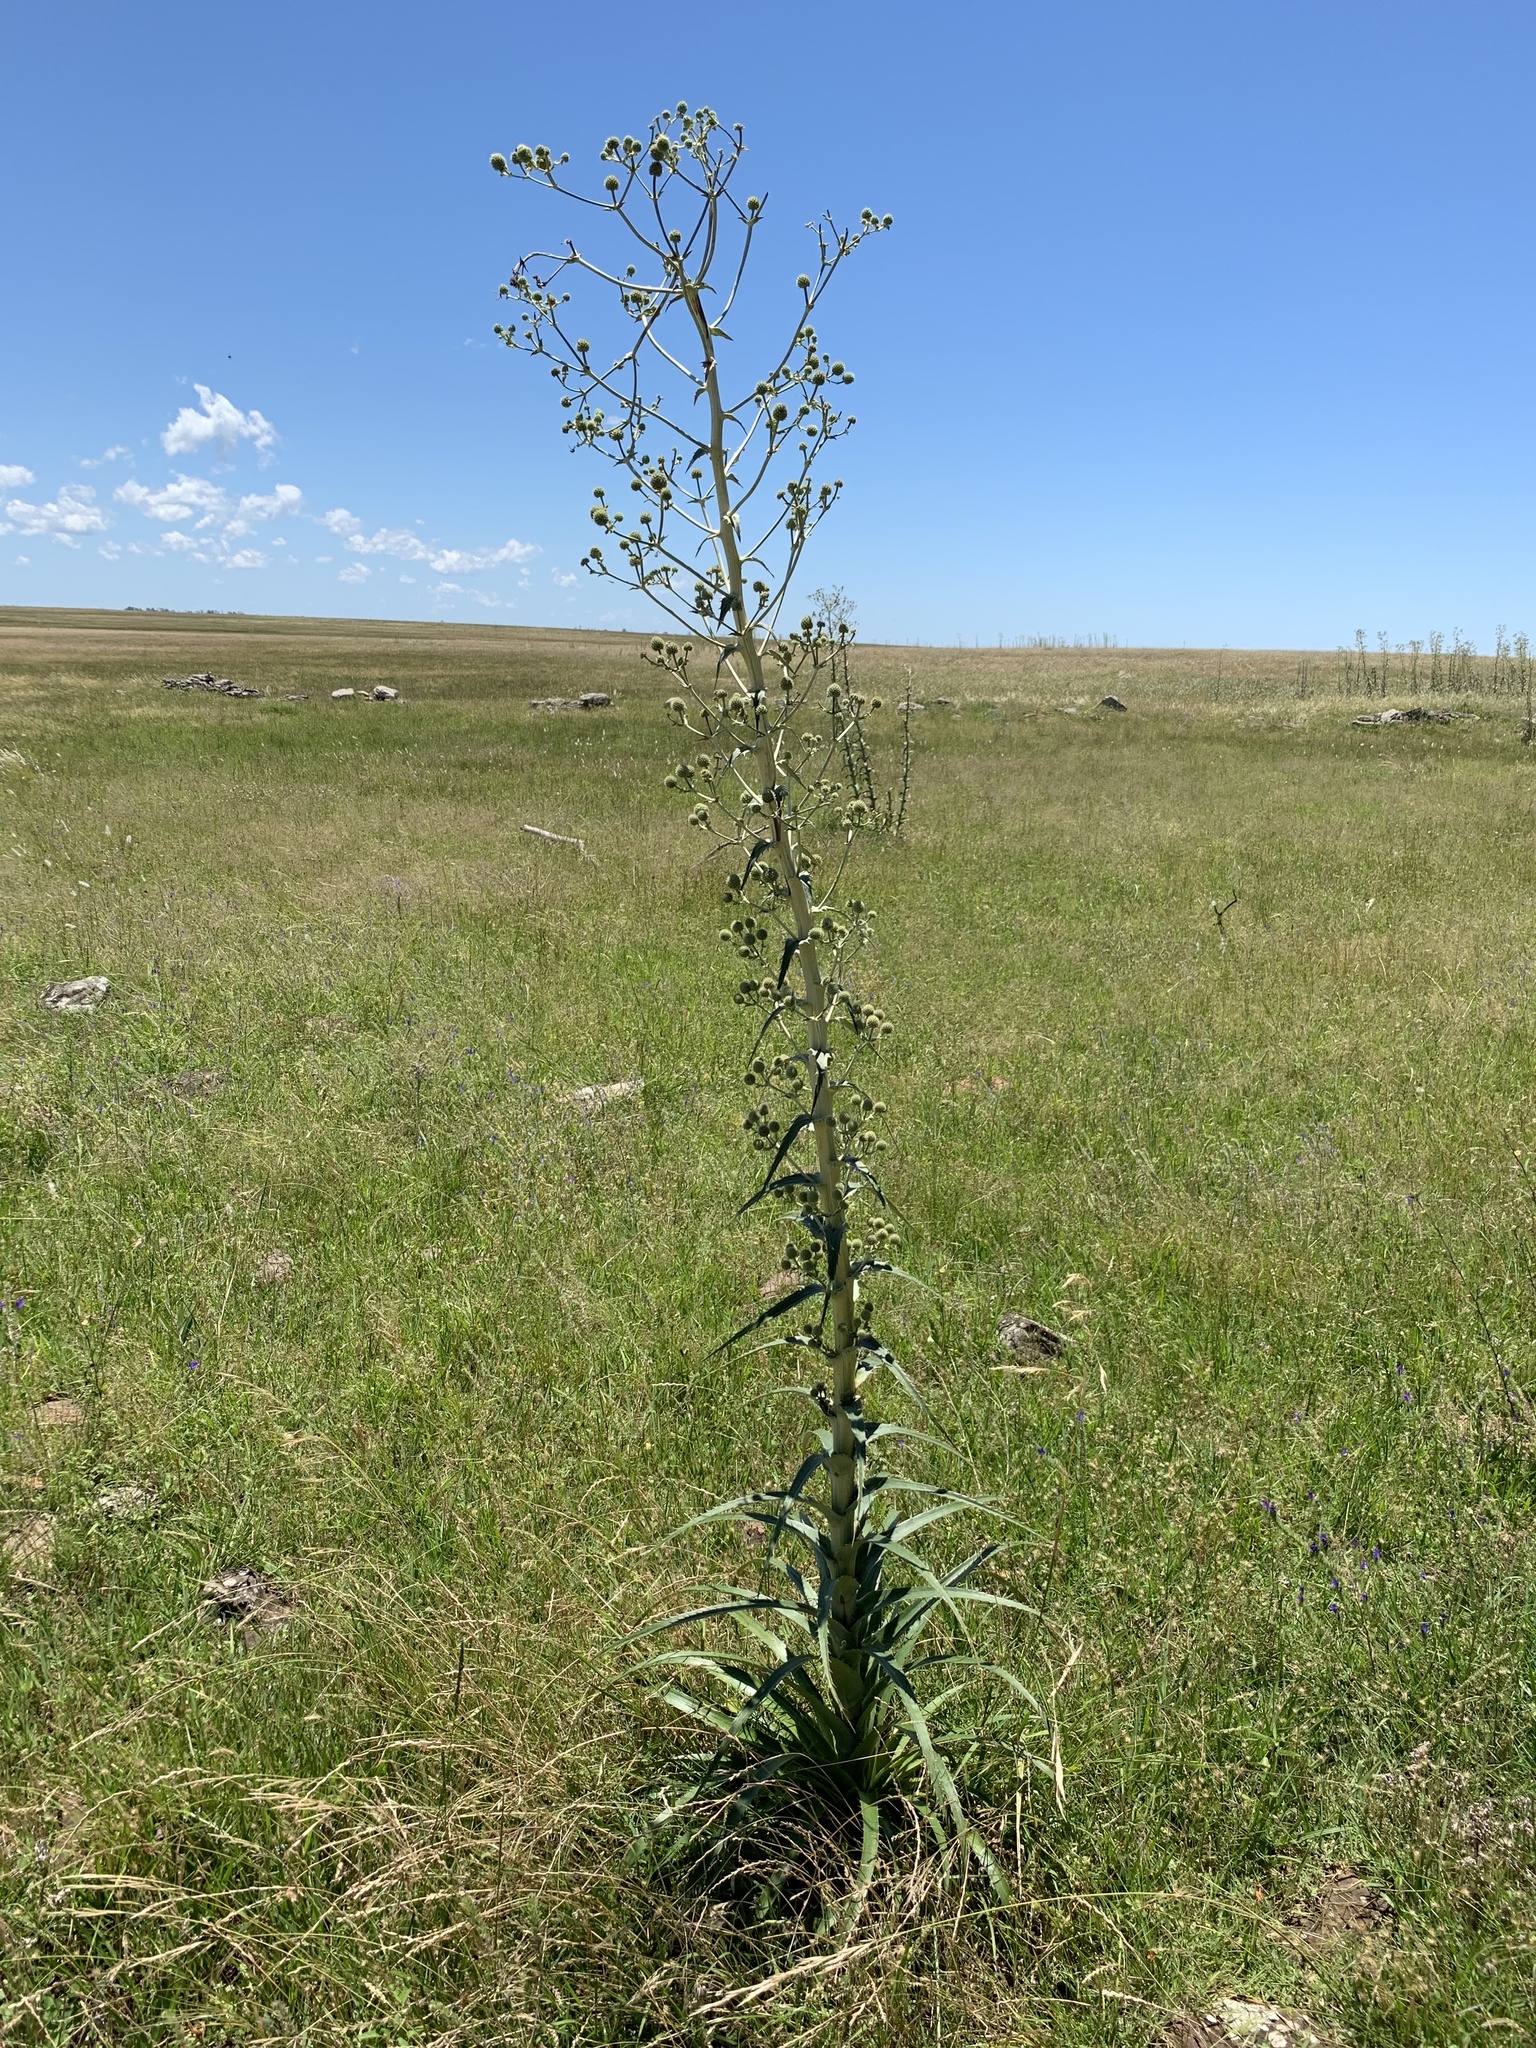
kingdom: Plantae
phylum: Tracheophyta
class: Magnoliopsida
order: Apiales
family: Apiaceae
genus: Eryngium
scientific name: Eryngium horridum
